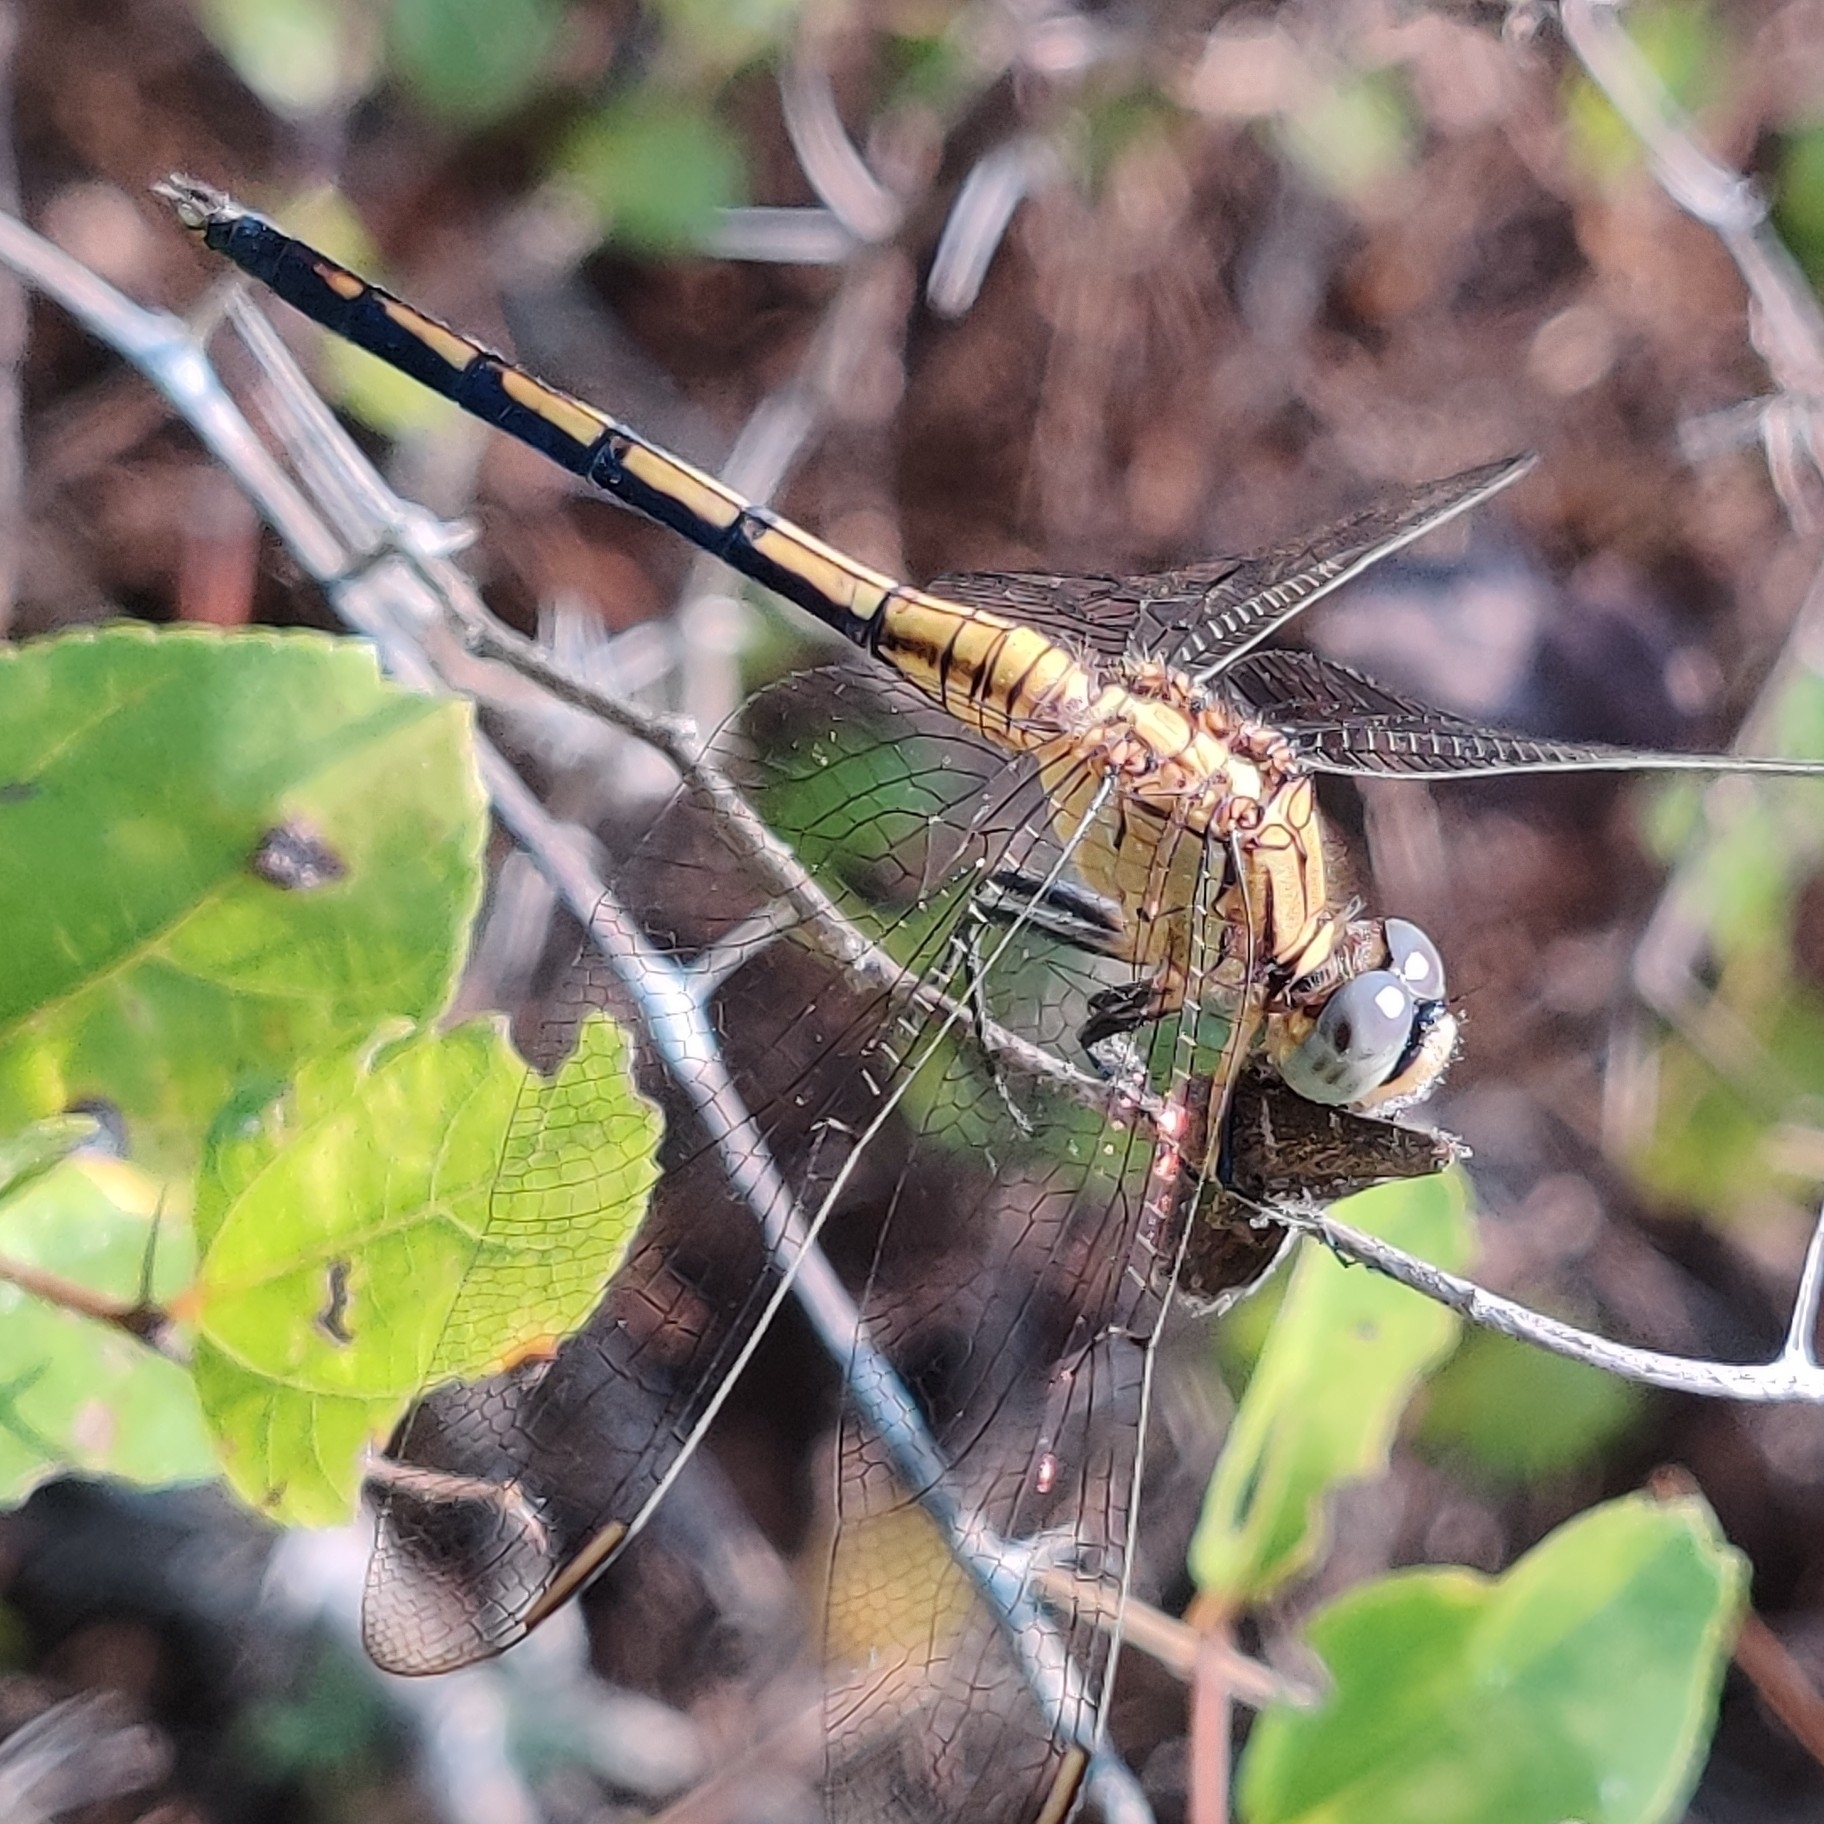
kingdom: Animalia
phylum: Arthropoda
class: Insecta
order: Odonata
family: Libellulidae
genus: Orthetrum
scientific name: Orthetrum luzonicum
